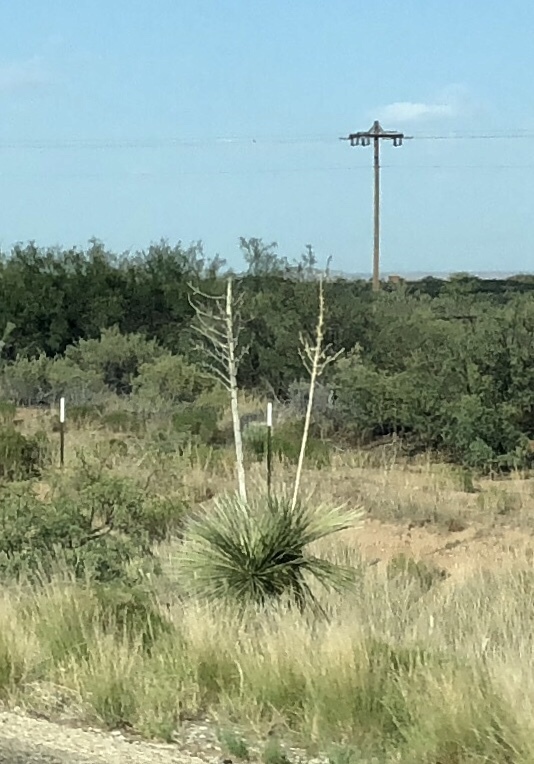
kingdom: Plantae
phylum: Tracheophyta
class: Liliopsida
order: Asparagales
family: Asparagaceae
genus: Yucca
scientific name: Yucca elata
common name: Palmella
